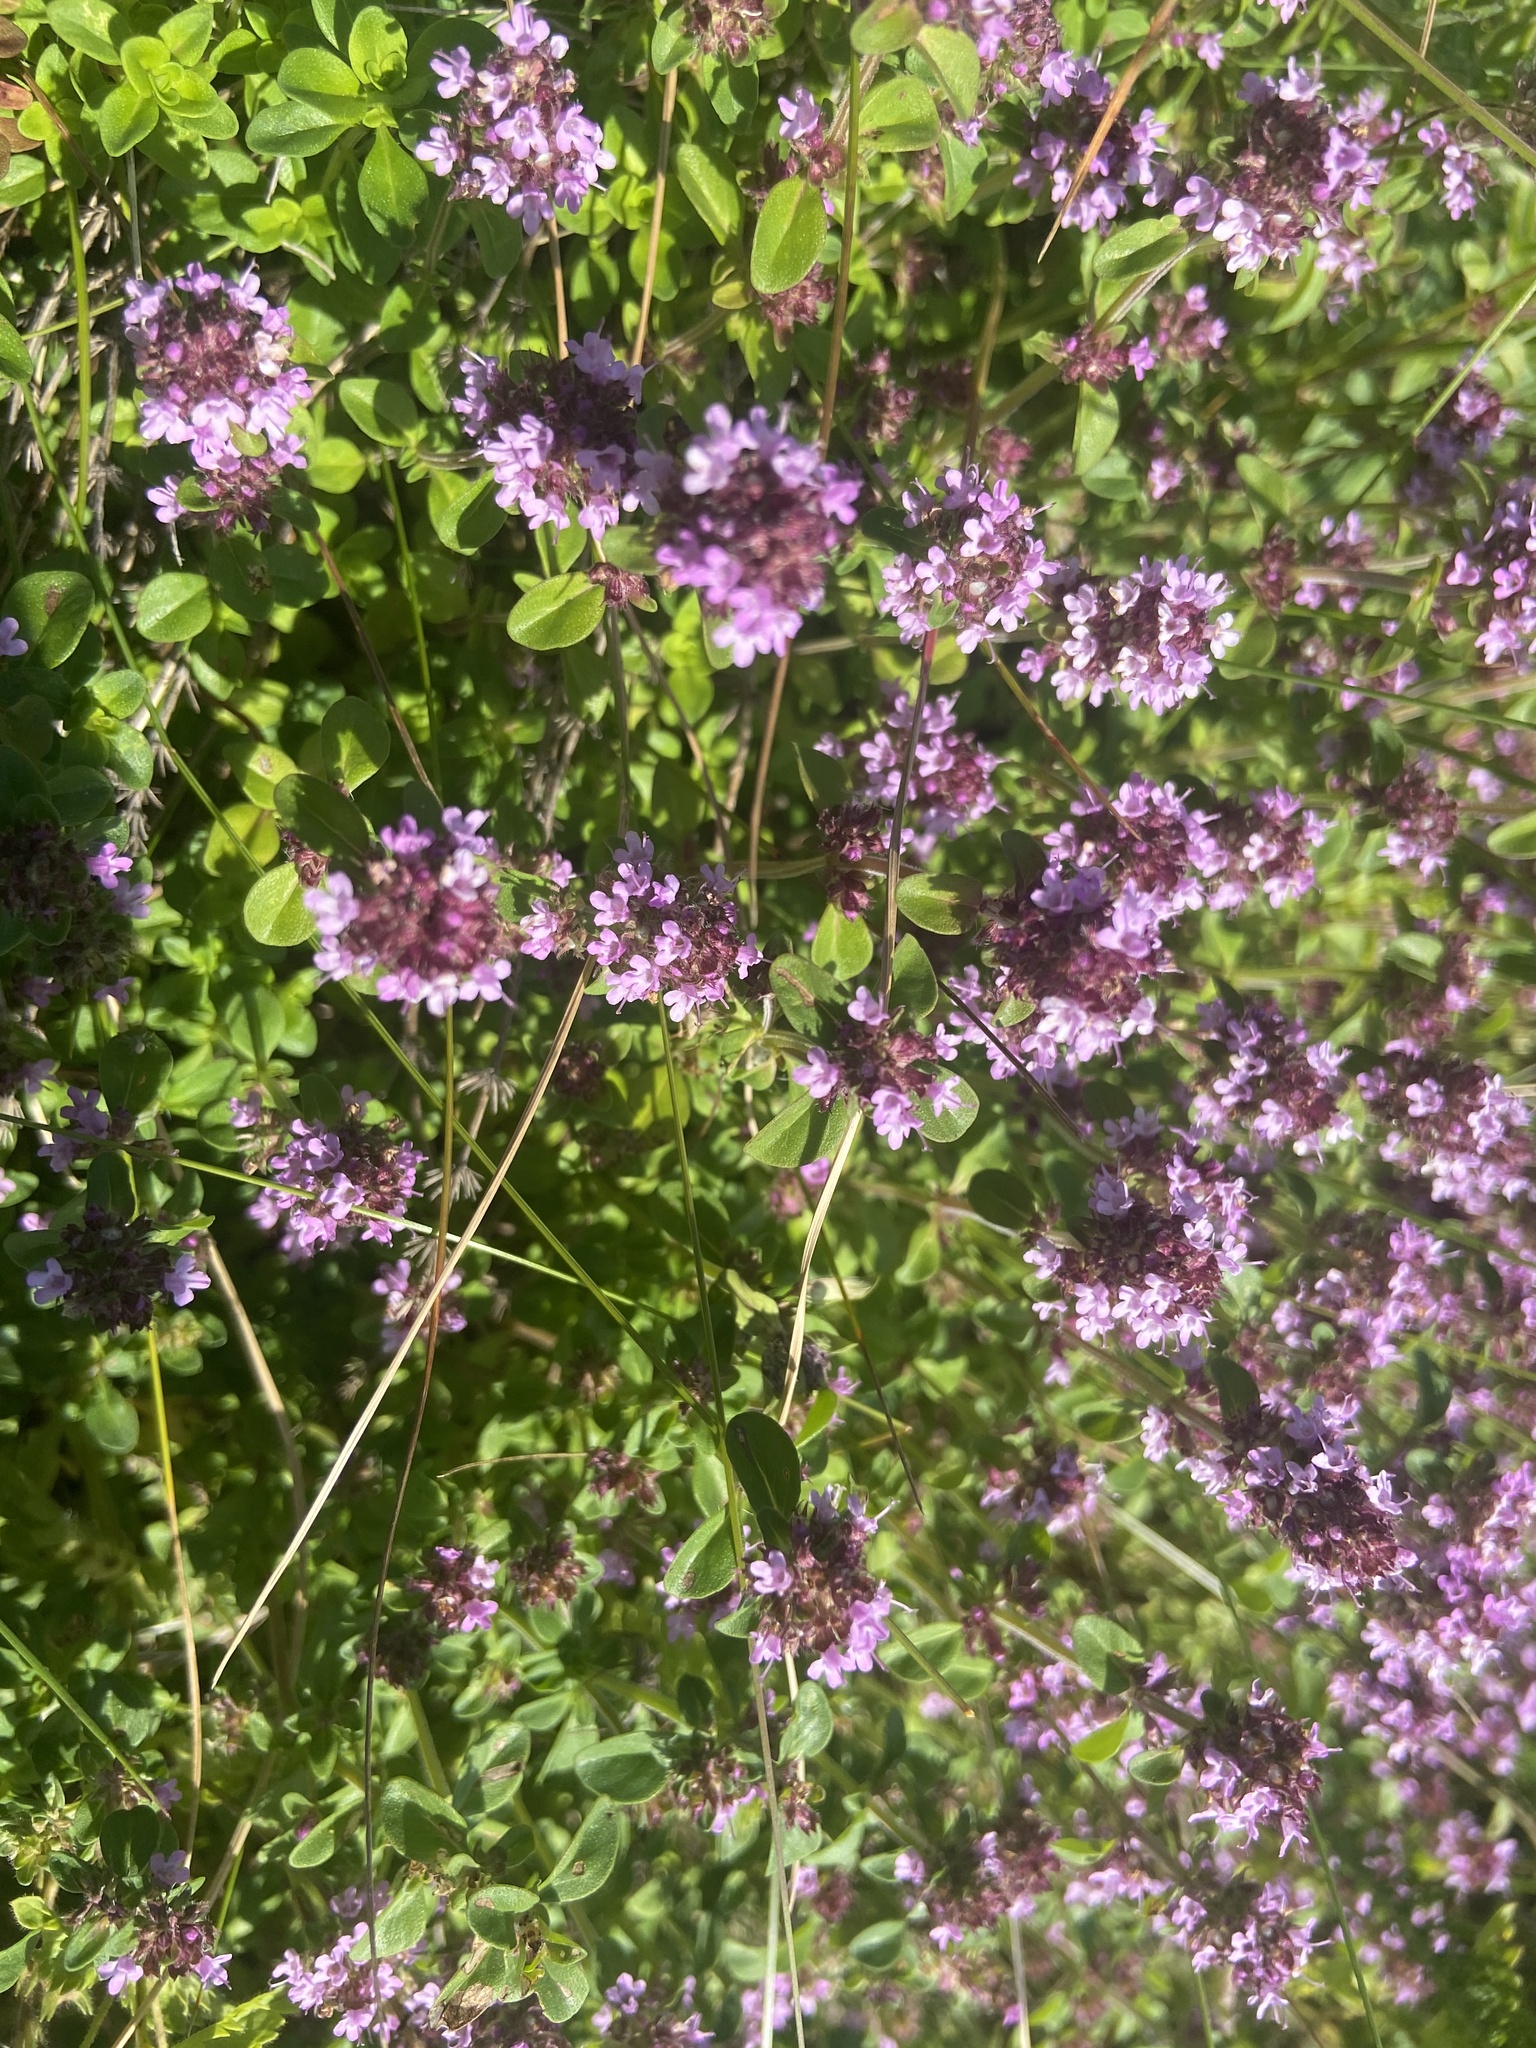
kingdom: Plantae
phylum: Tracheophyta
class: Magnoliopsida
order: Lamiales
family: Lamiaceae
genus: Thymus
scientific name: Thymus pulegioides
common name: Large thyme
